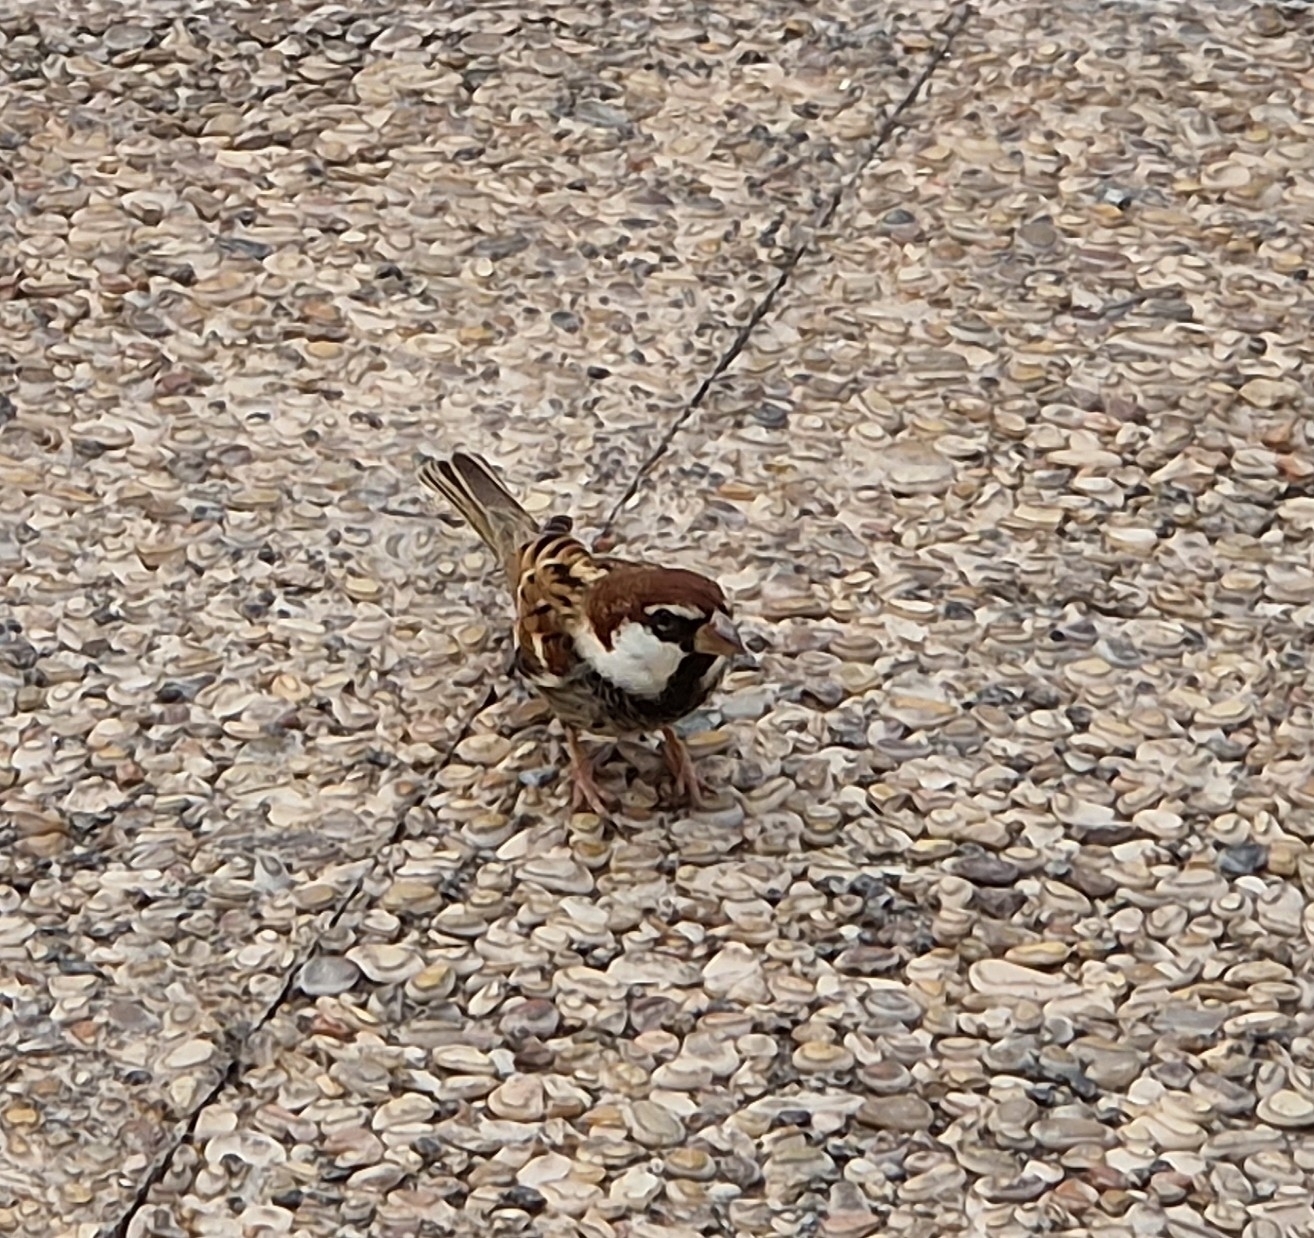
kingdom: Animalia
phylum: Chordata
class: Aves
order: Passeriformes
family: Passeridae
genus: Passer
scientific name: Passer hispaniolensis
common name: Spanish sparrow
